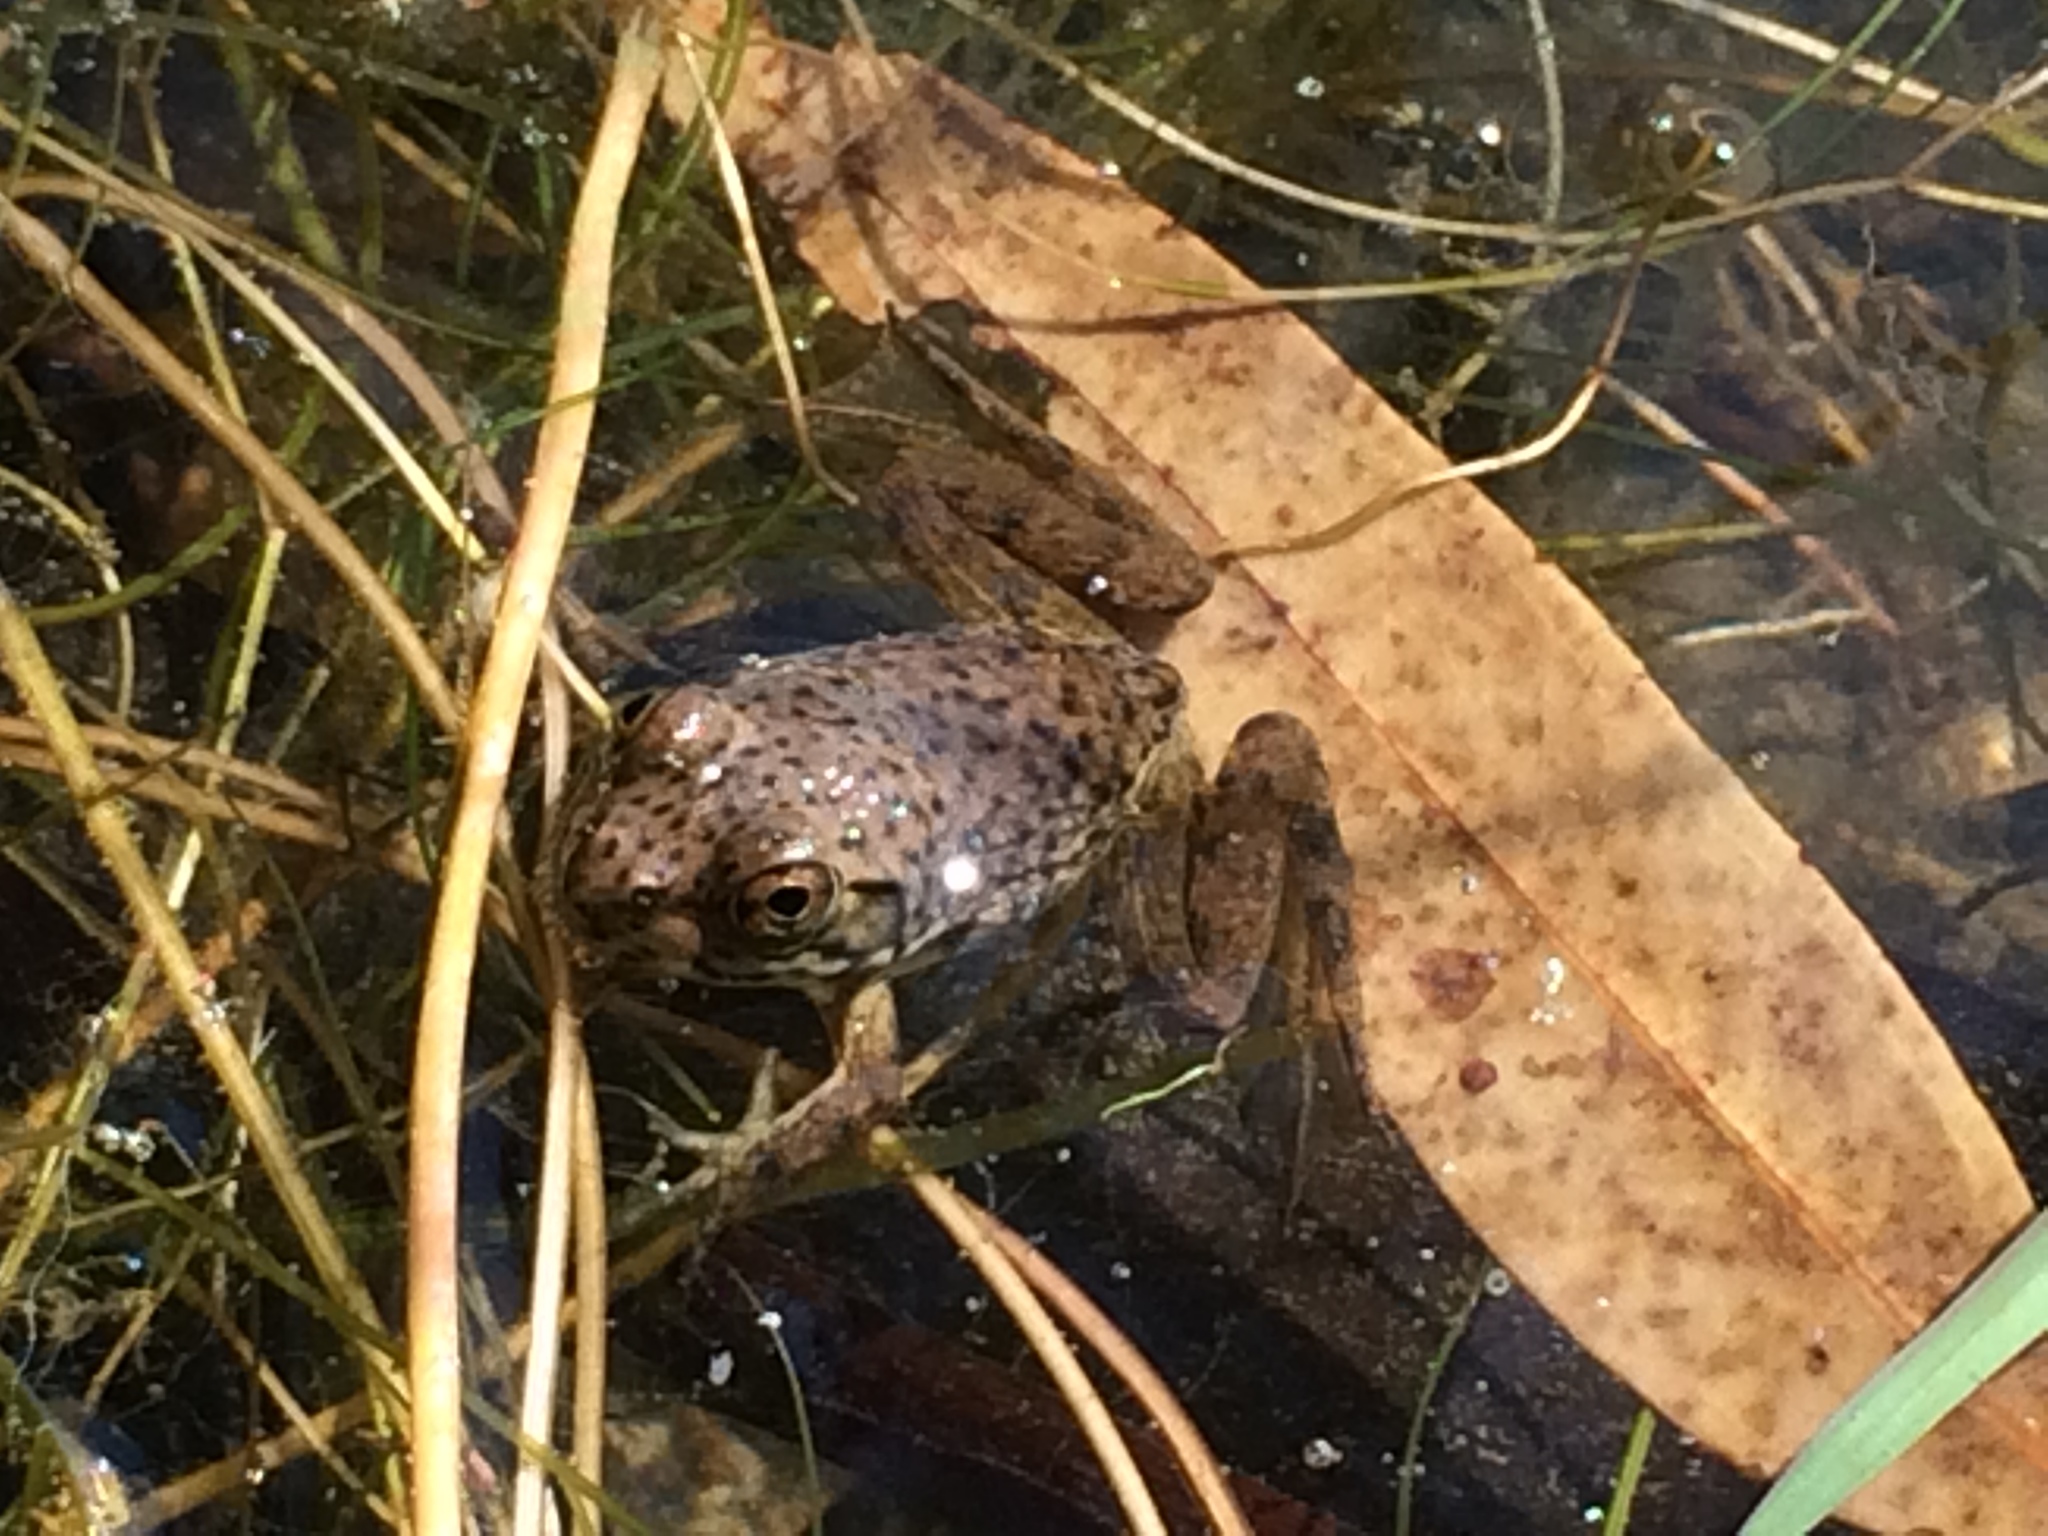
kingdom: Animalia
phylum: Chordata
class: Amphibia
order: Anura
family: Ranidae
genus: Lithobates
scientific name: Lithobates catesbeianus
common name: American bullfrog
